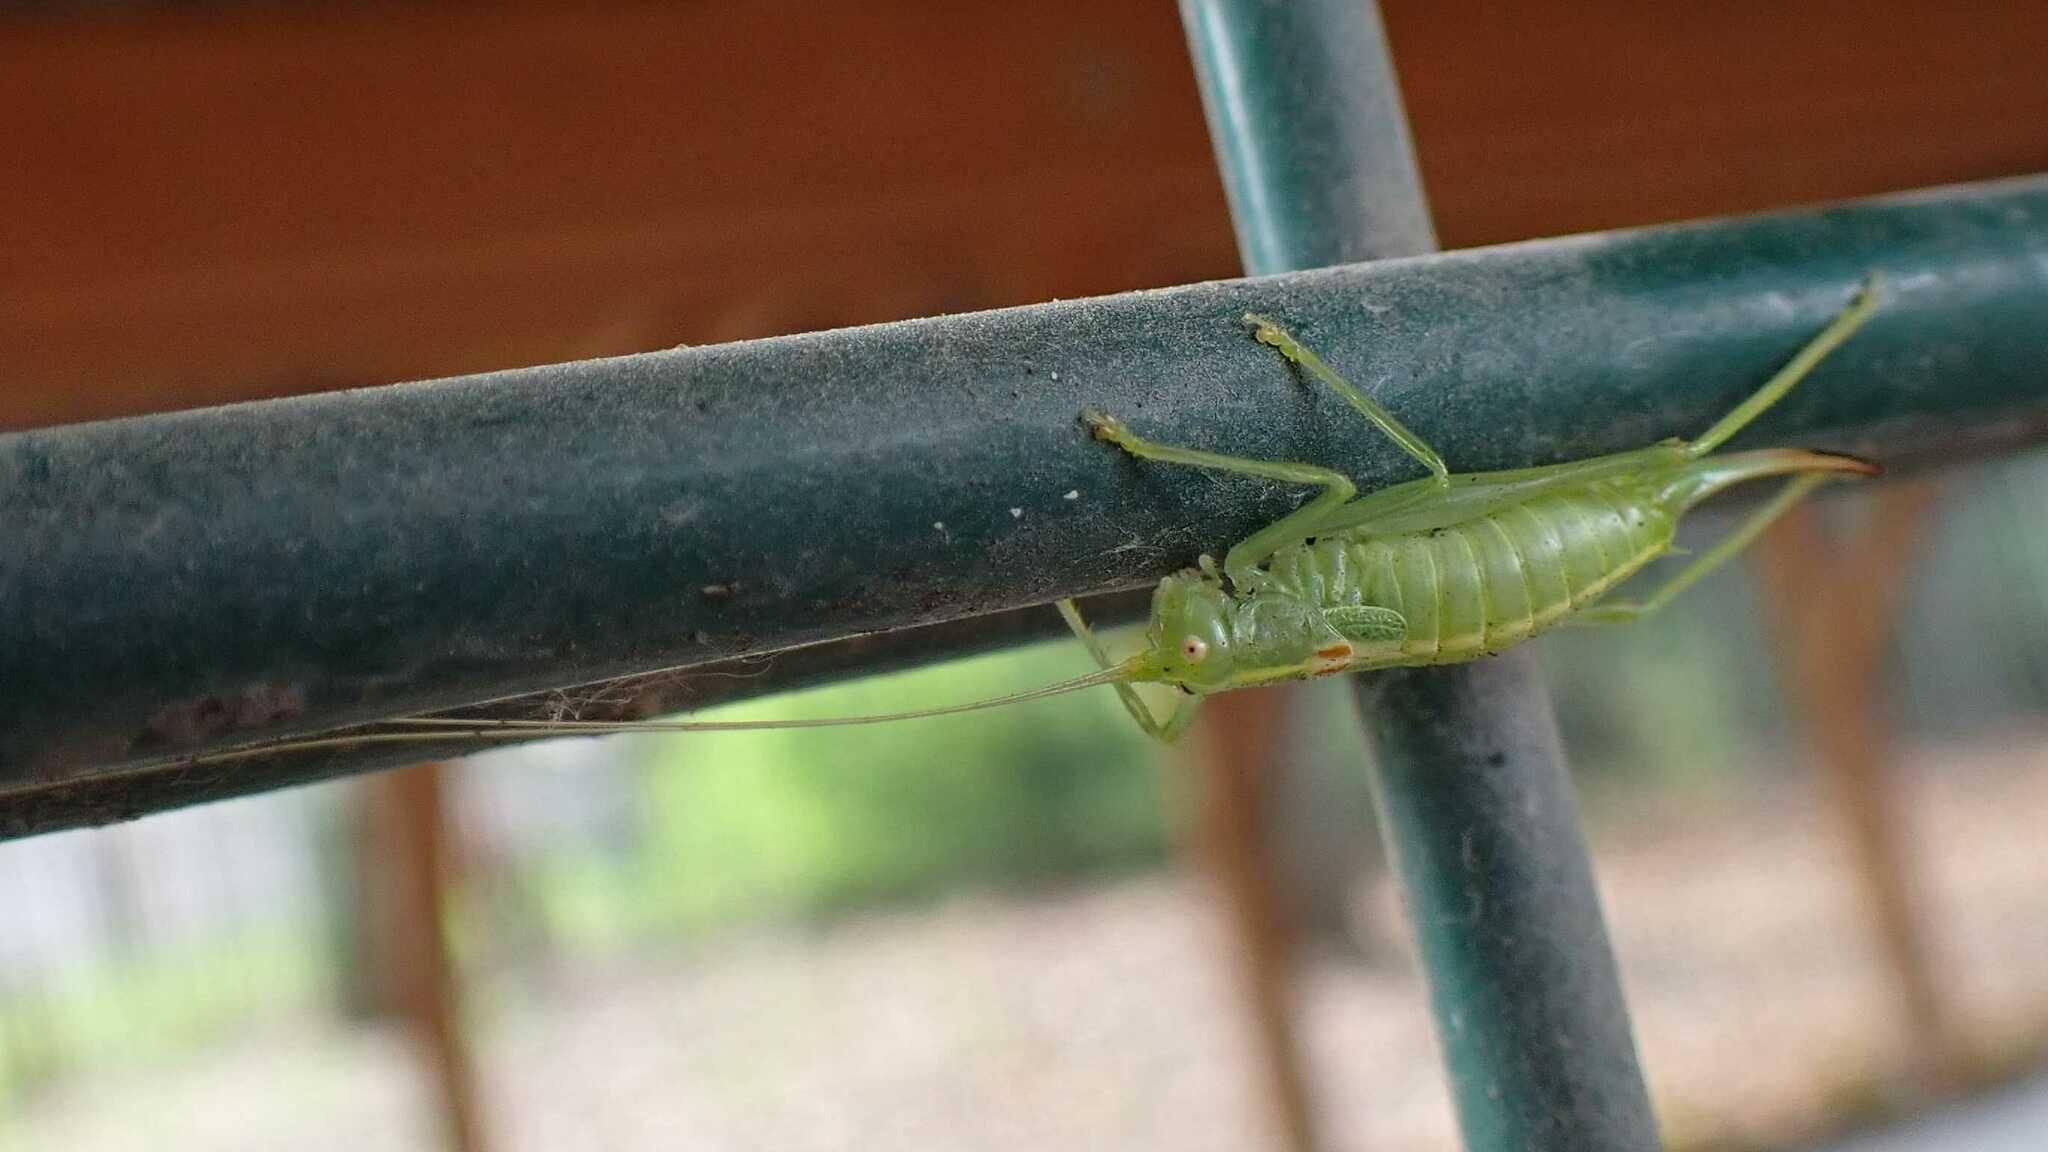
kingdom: Animalia
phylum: Arthropoda
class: Insecta
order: Orthoptera
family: Tettigoniidae
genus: Meconema
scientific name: Meconema meridionale
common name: Southern oak bush-cricket
